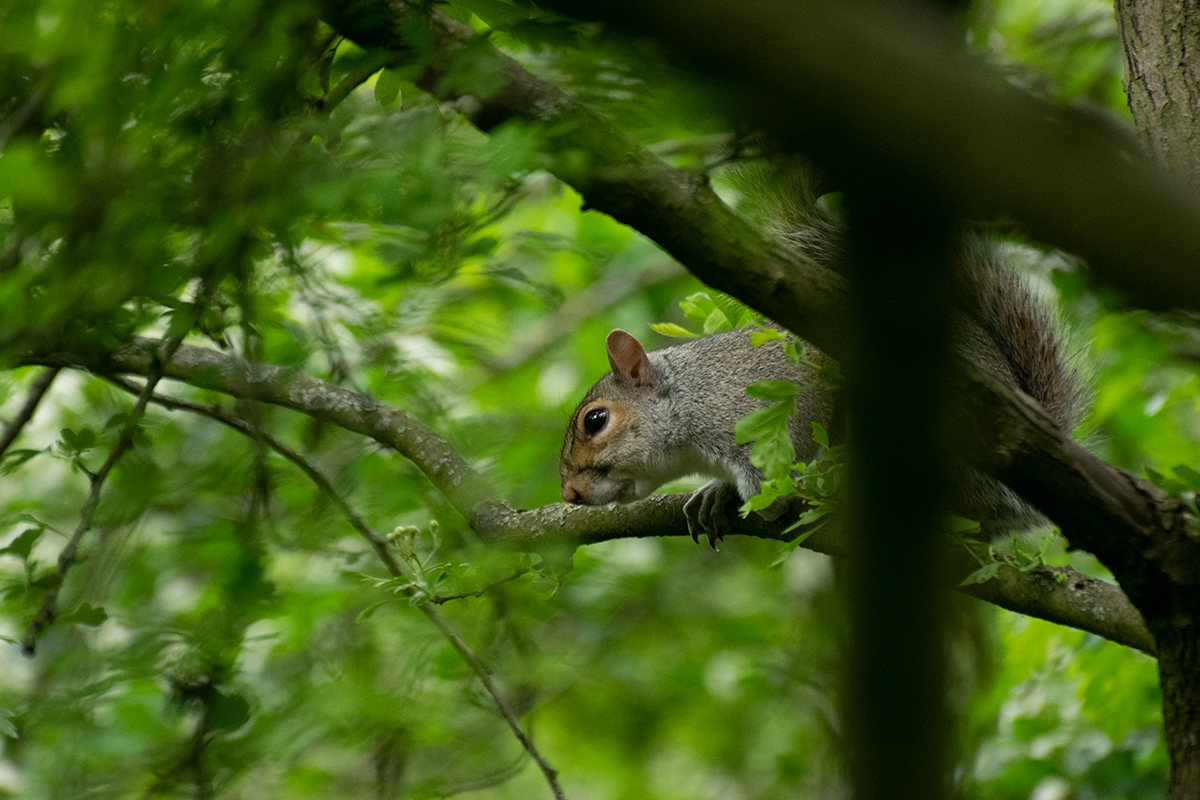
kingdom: Animalia
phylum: Chordata
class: Mammalia
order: Rodentia
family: Sciuridae
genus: Sciurus
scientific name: Sciurus carolinensis
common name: Eastern gray squirrel
